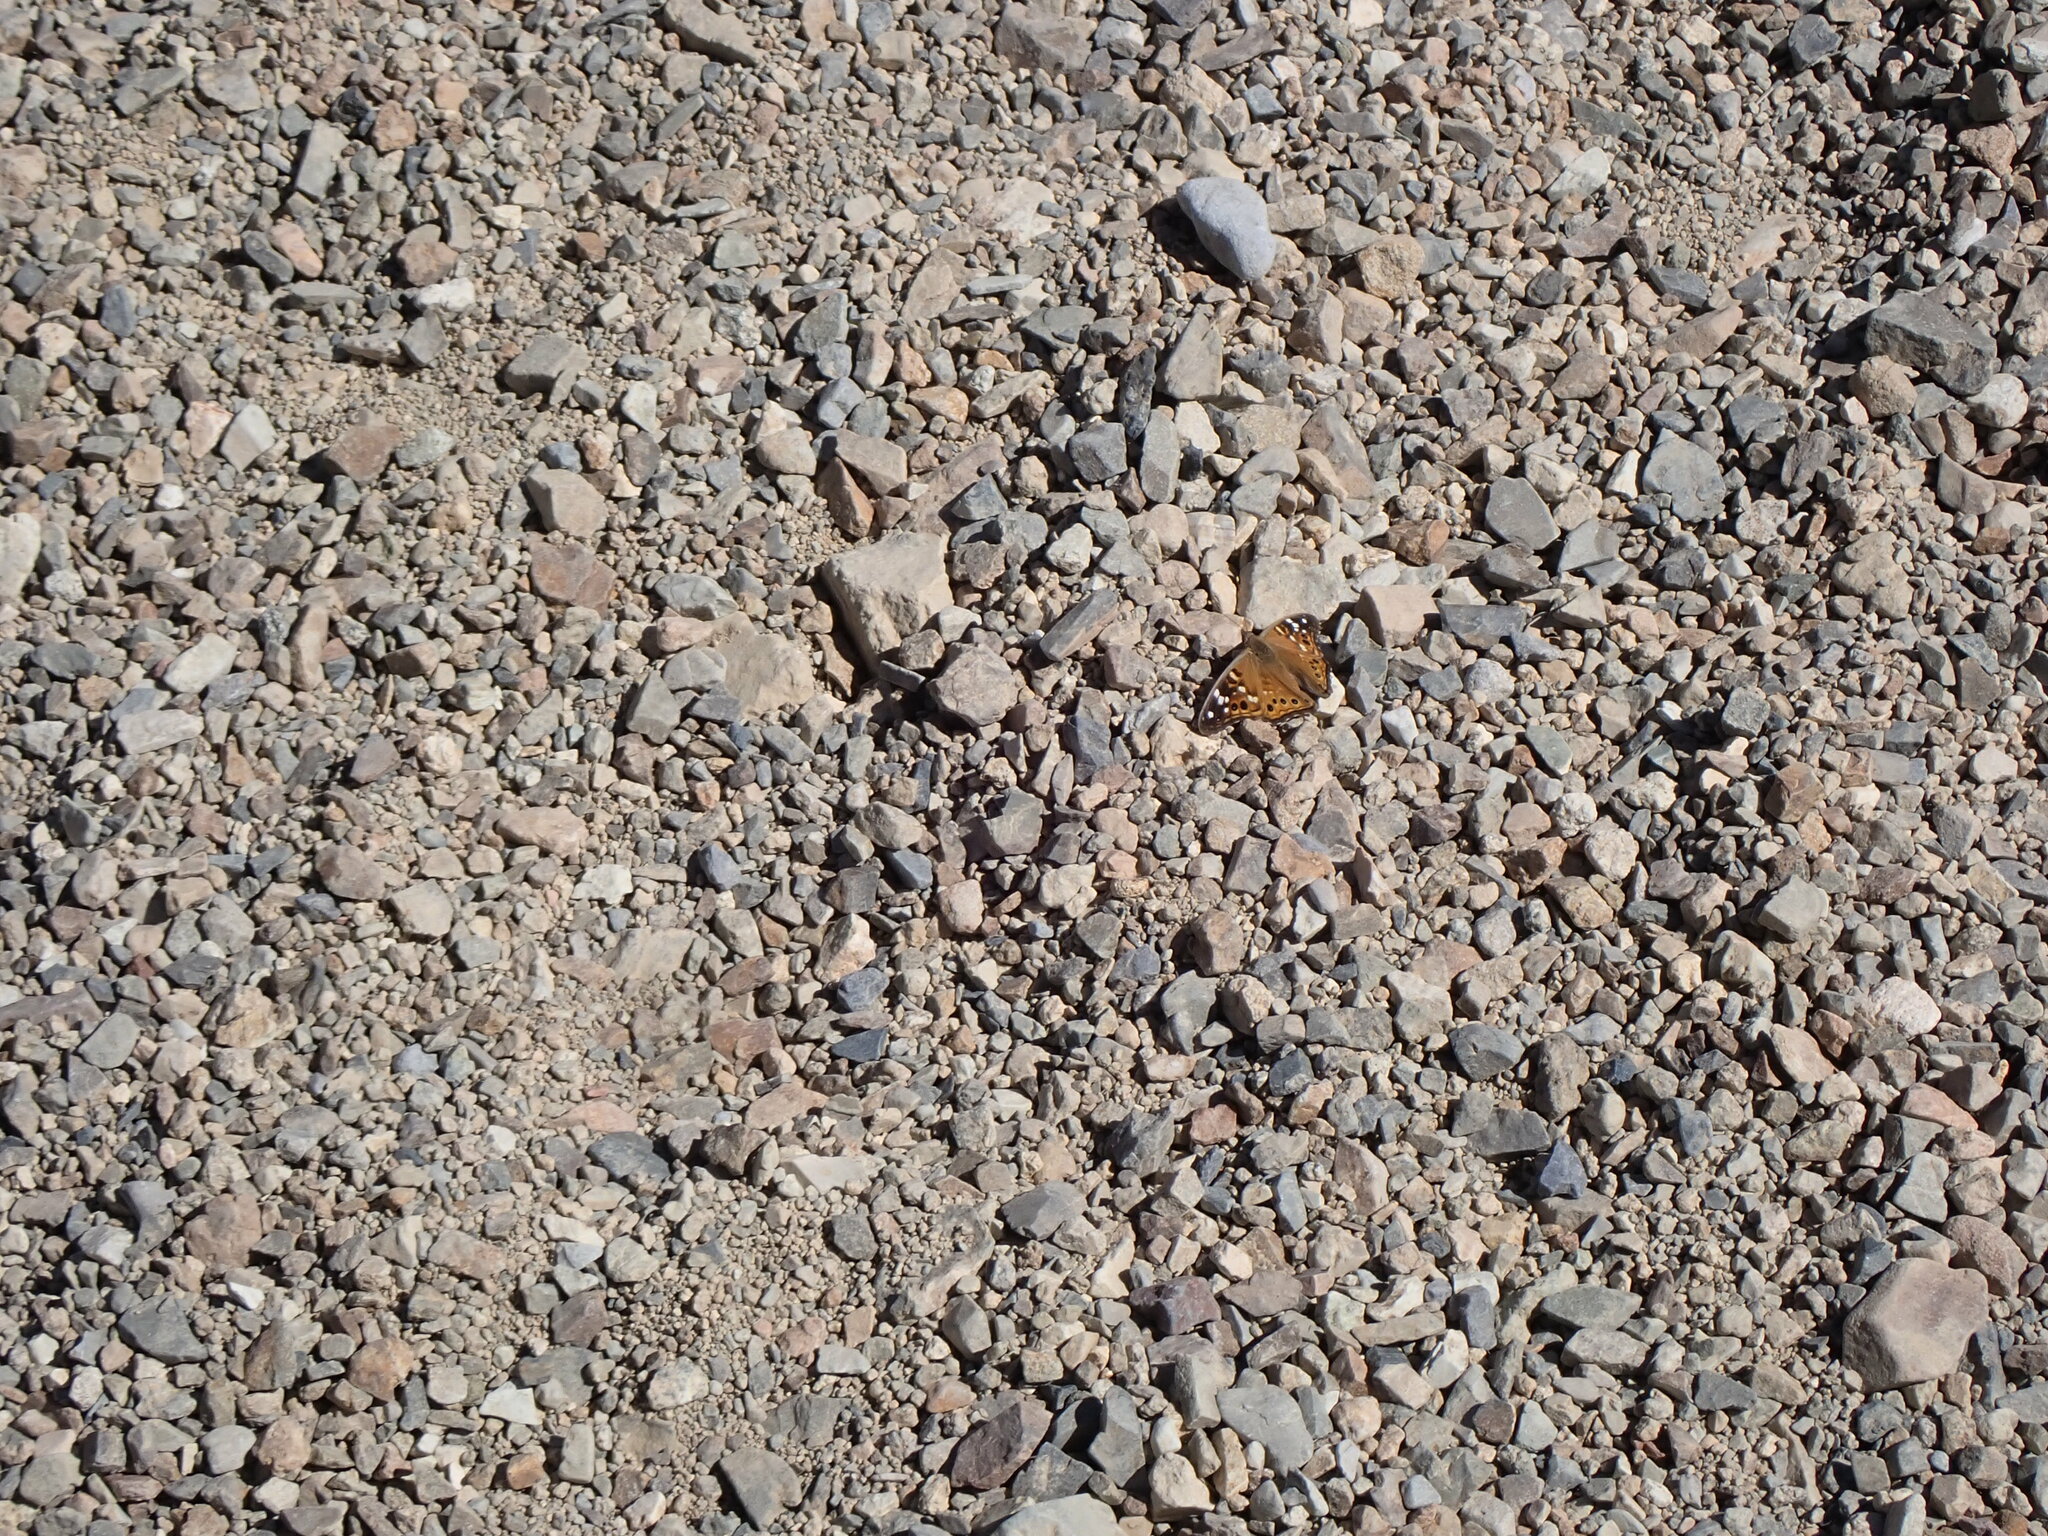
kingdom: Animalia
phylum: Arthropoda
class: Insecta
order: Lepidoptera
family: Nymphalidae
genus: Asterocampa
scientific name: Asterocampa leilia
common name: Empress leilia
